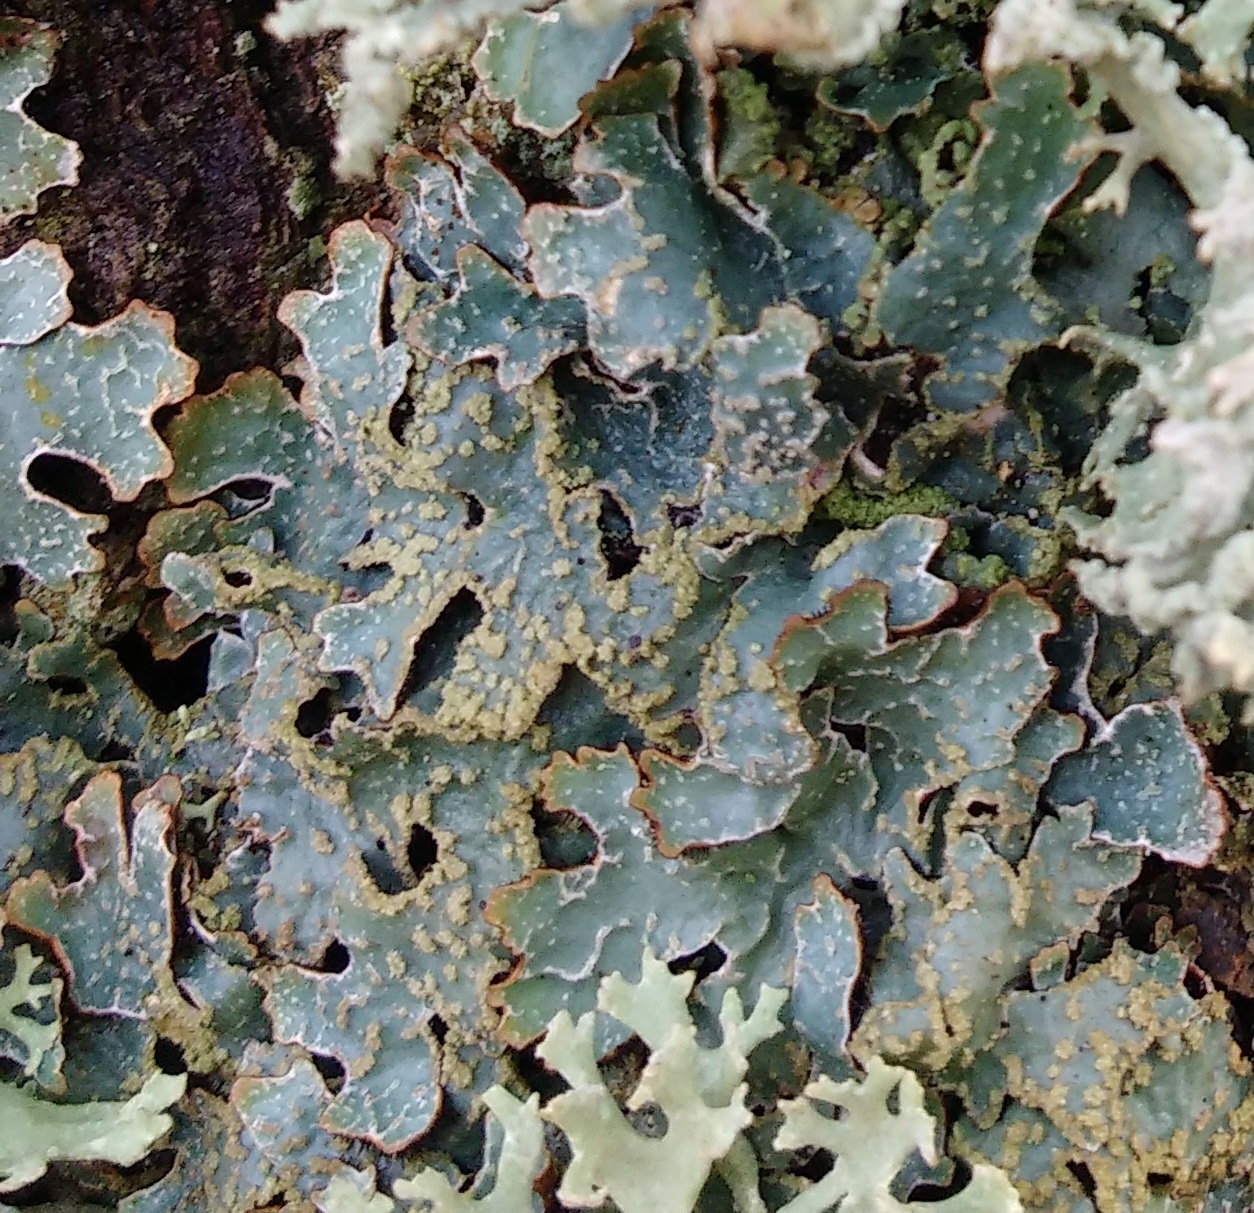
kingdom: Fungi
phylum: Ascomycota
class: Lecanoromycetes
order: Lecanorales
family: Parmeliaceae
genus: Parmelia
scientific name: Parmelia sulcata
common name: Netted shield lichen
